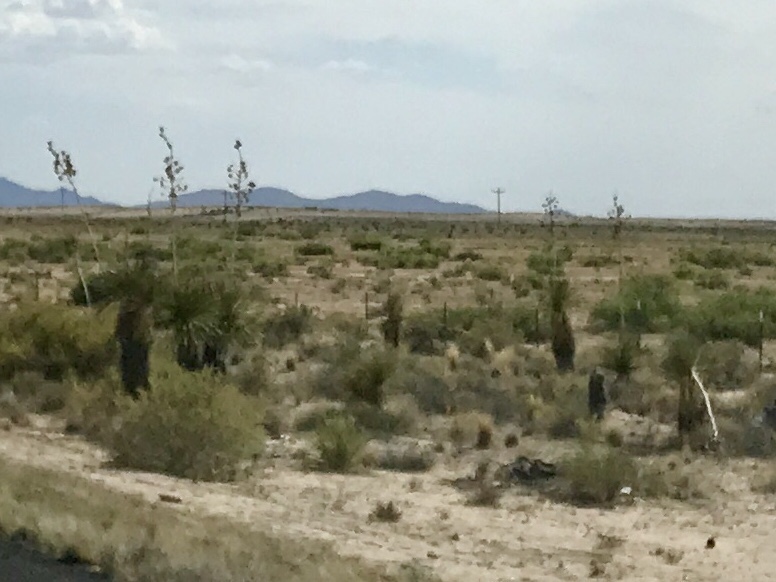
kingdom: Plantae
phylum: Tracheophyta
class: Liliopsida
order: Asparagales
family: Asparagaceae
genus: Yucca
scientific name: Yucca elata
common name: Palmella
